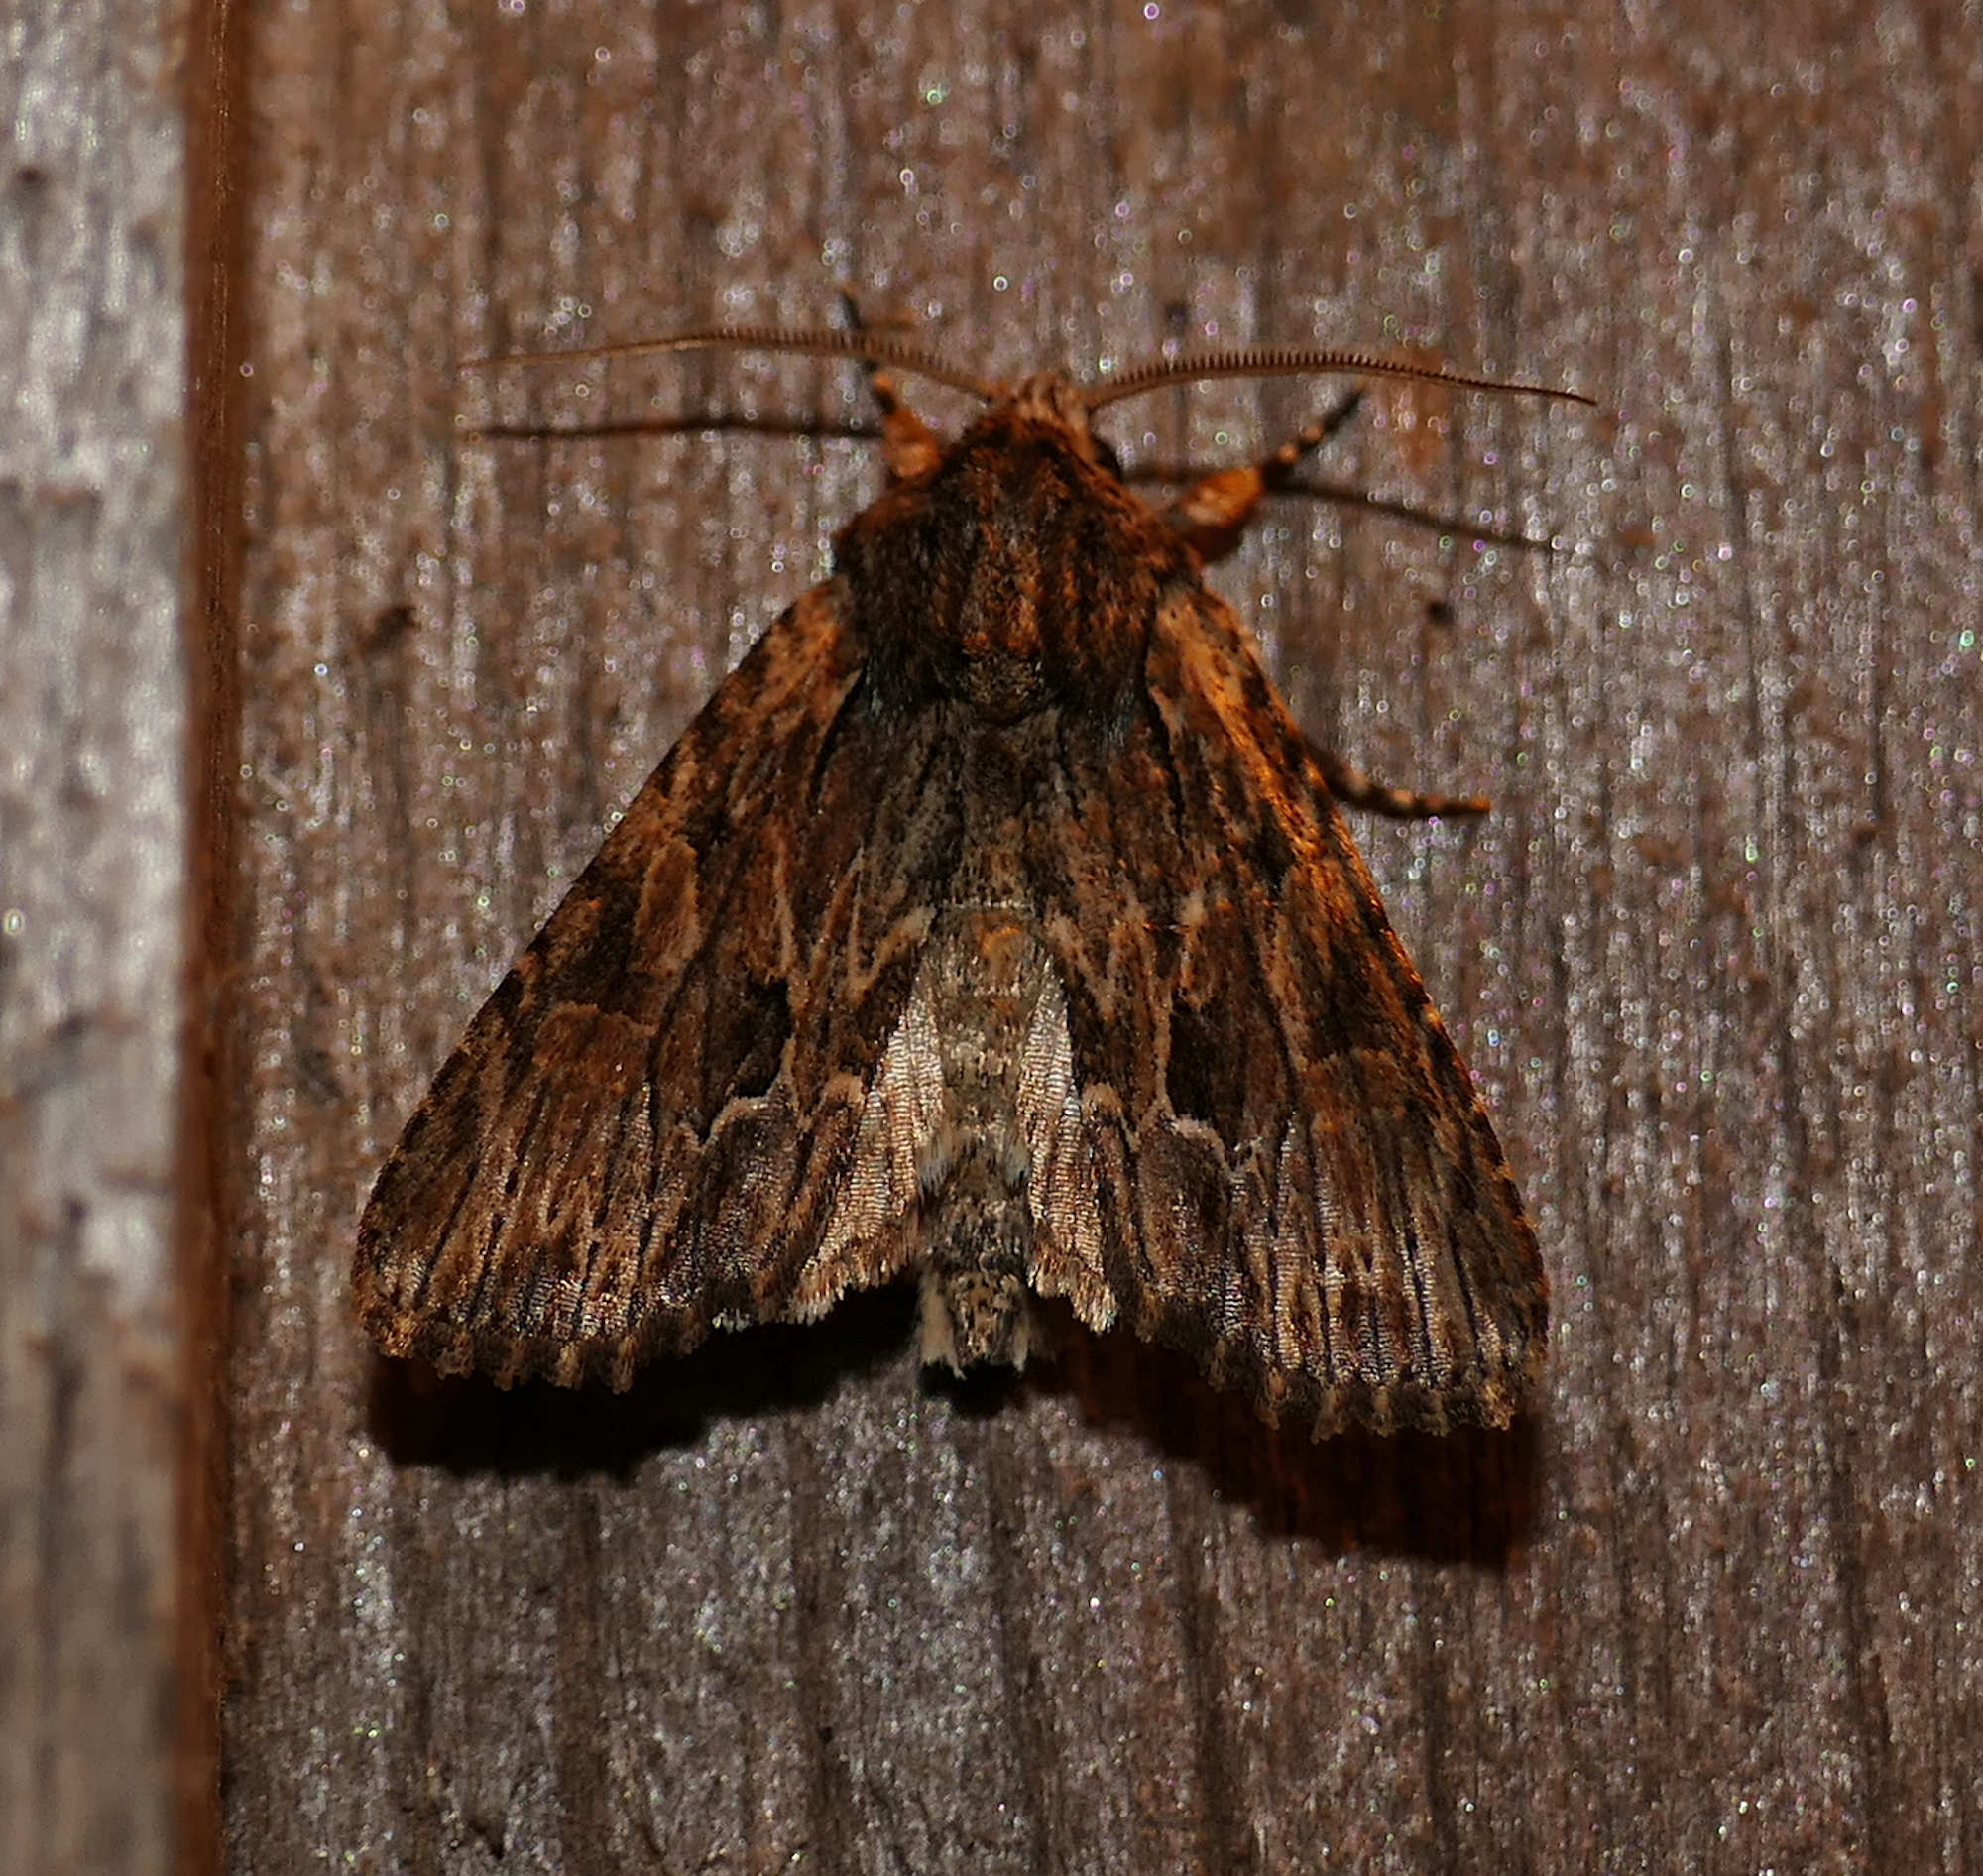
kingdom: Animalia
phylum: Arthropoda
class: Insecta
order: Lepidoptera
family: Noctuidae
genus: Achatia
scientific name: Achatia mucens
